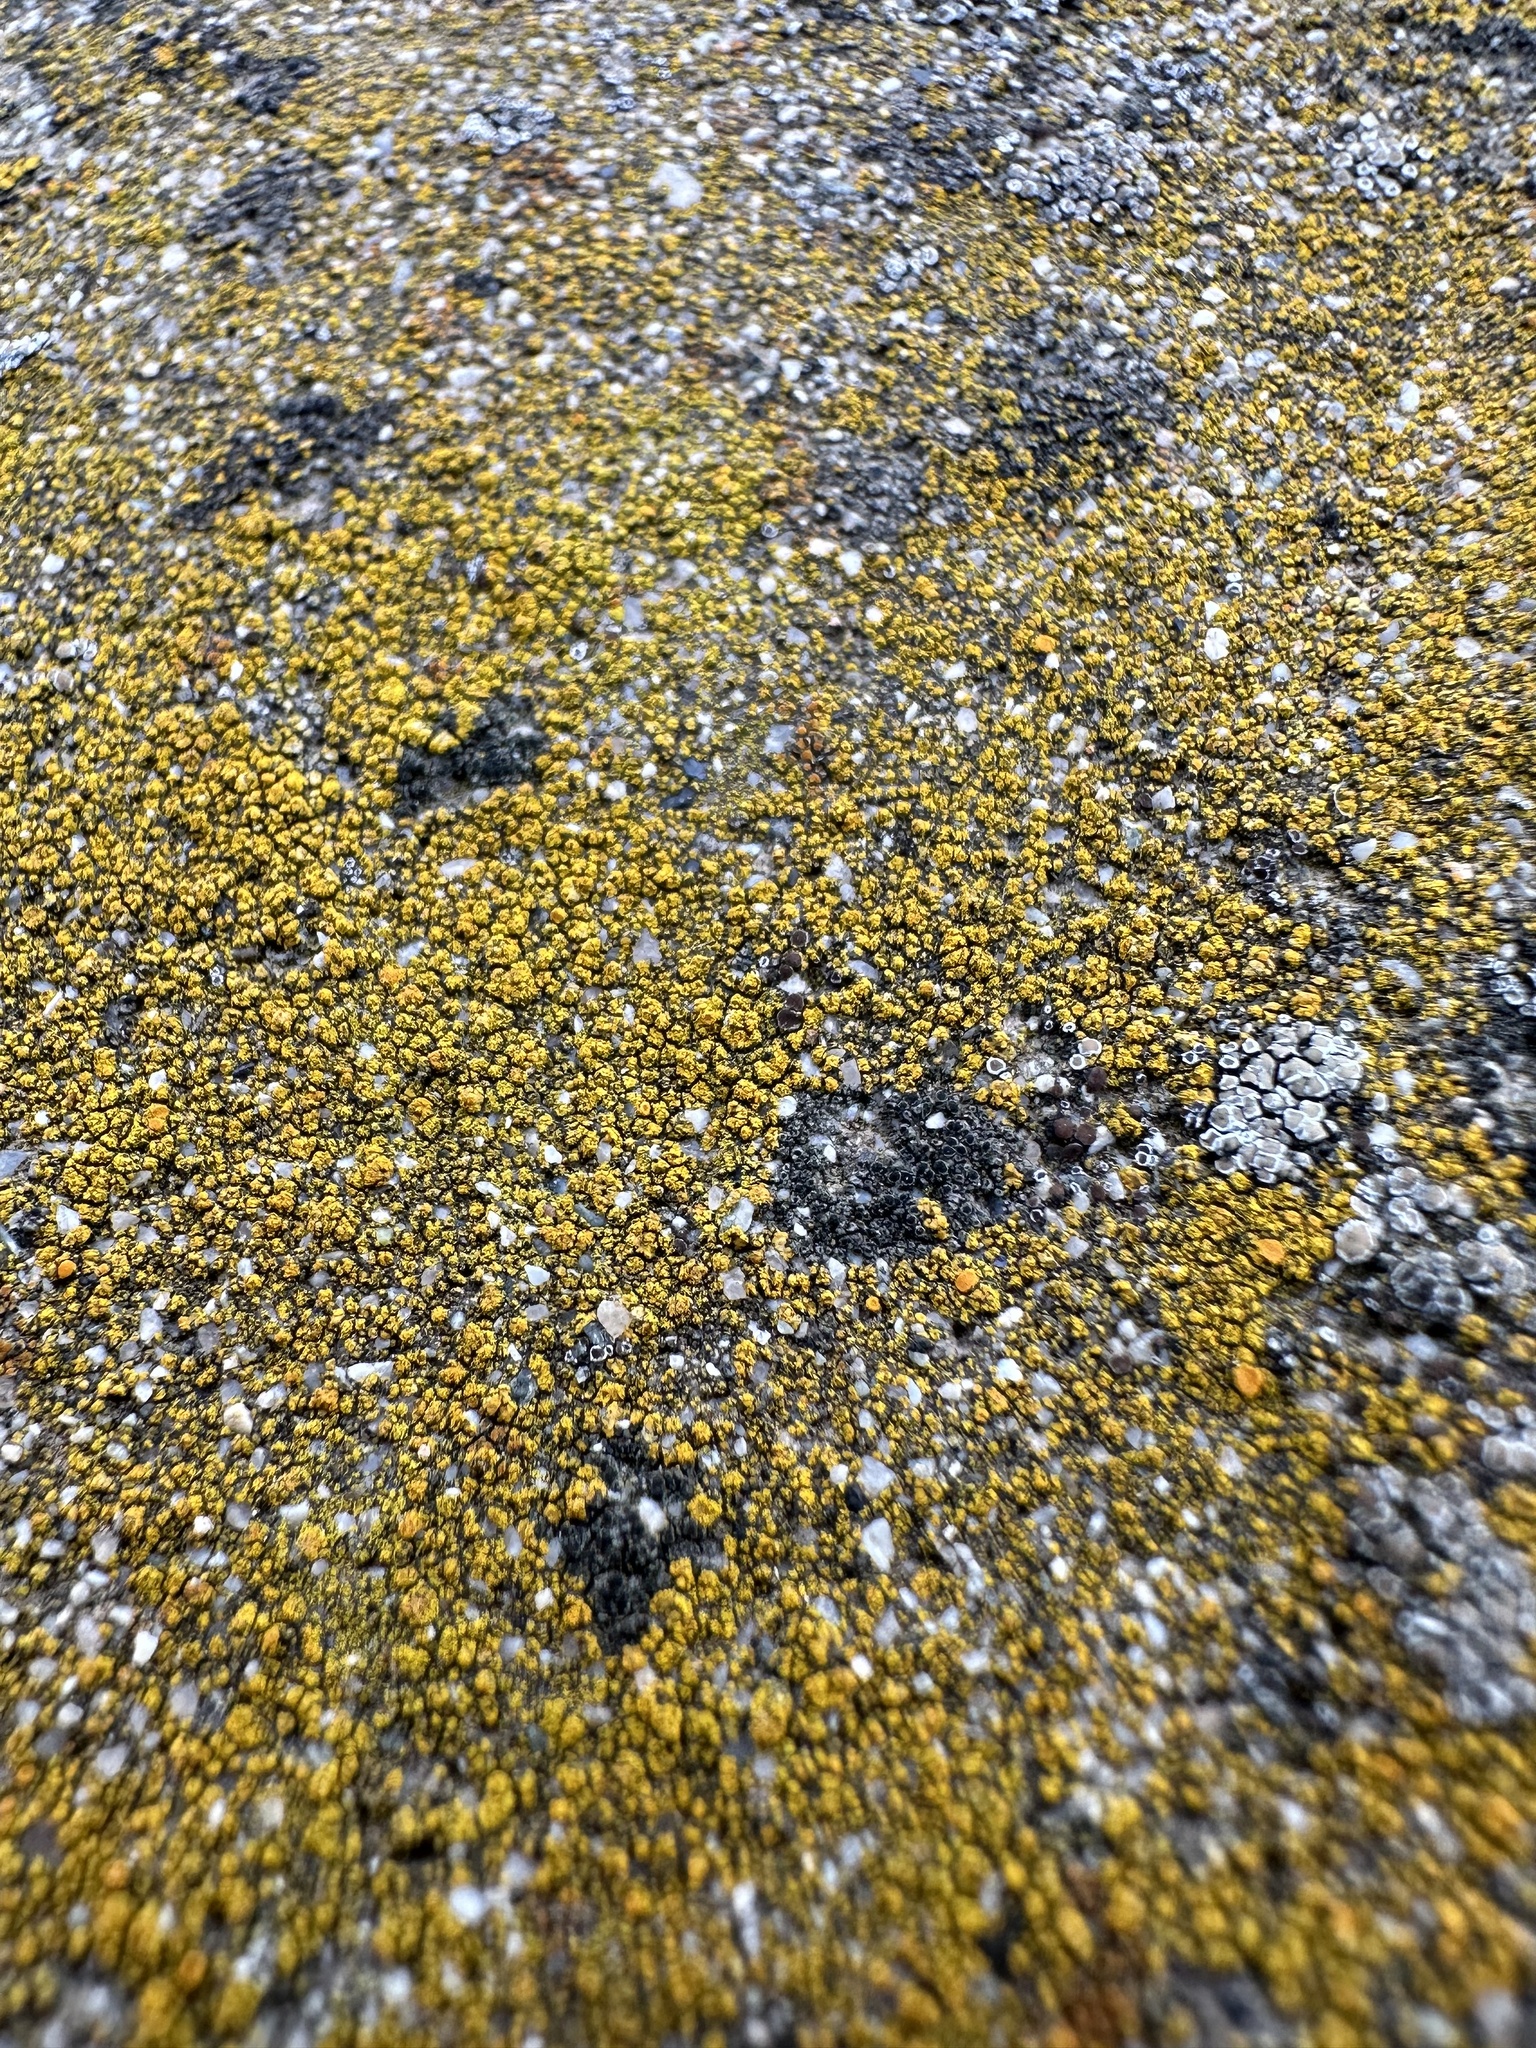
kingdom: Fungi
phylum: Ascomycota
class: Lecanoromycetes
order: Acarosporales
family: Acarosporaceae
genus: Acarospora
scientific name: Acarospora socialis
